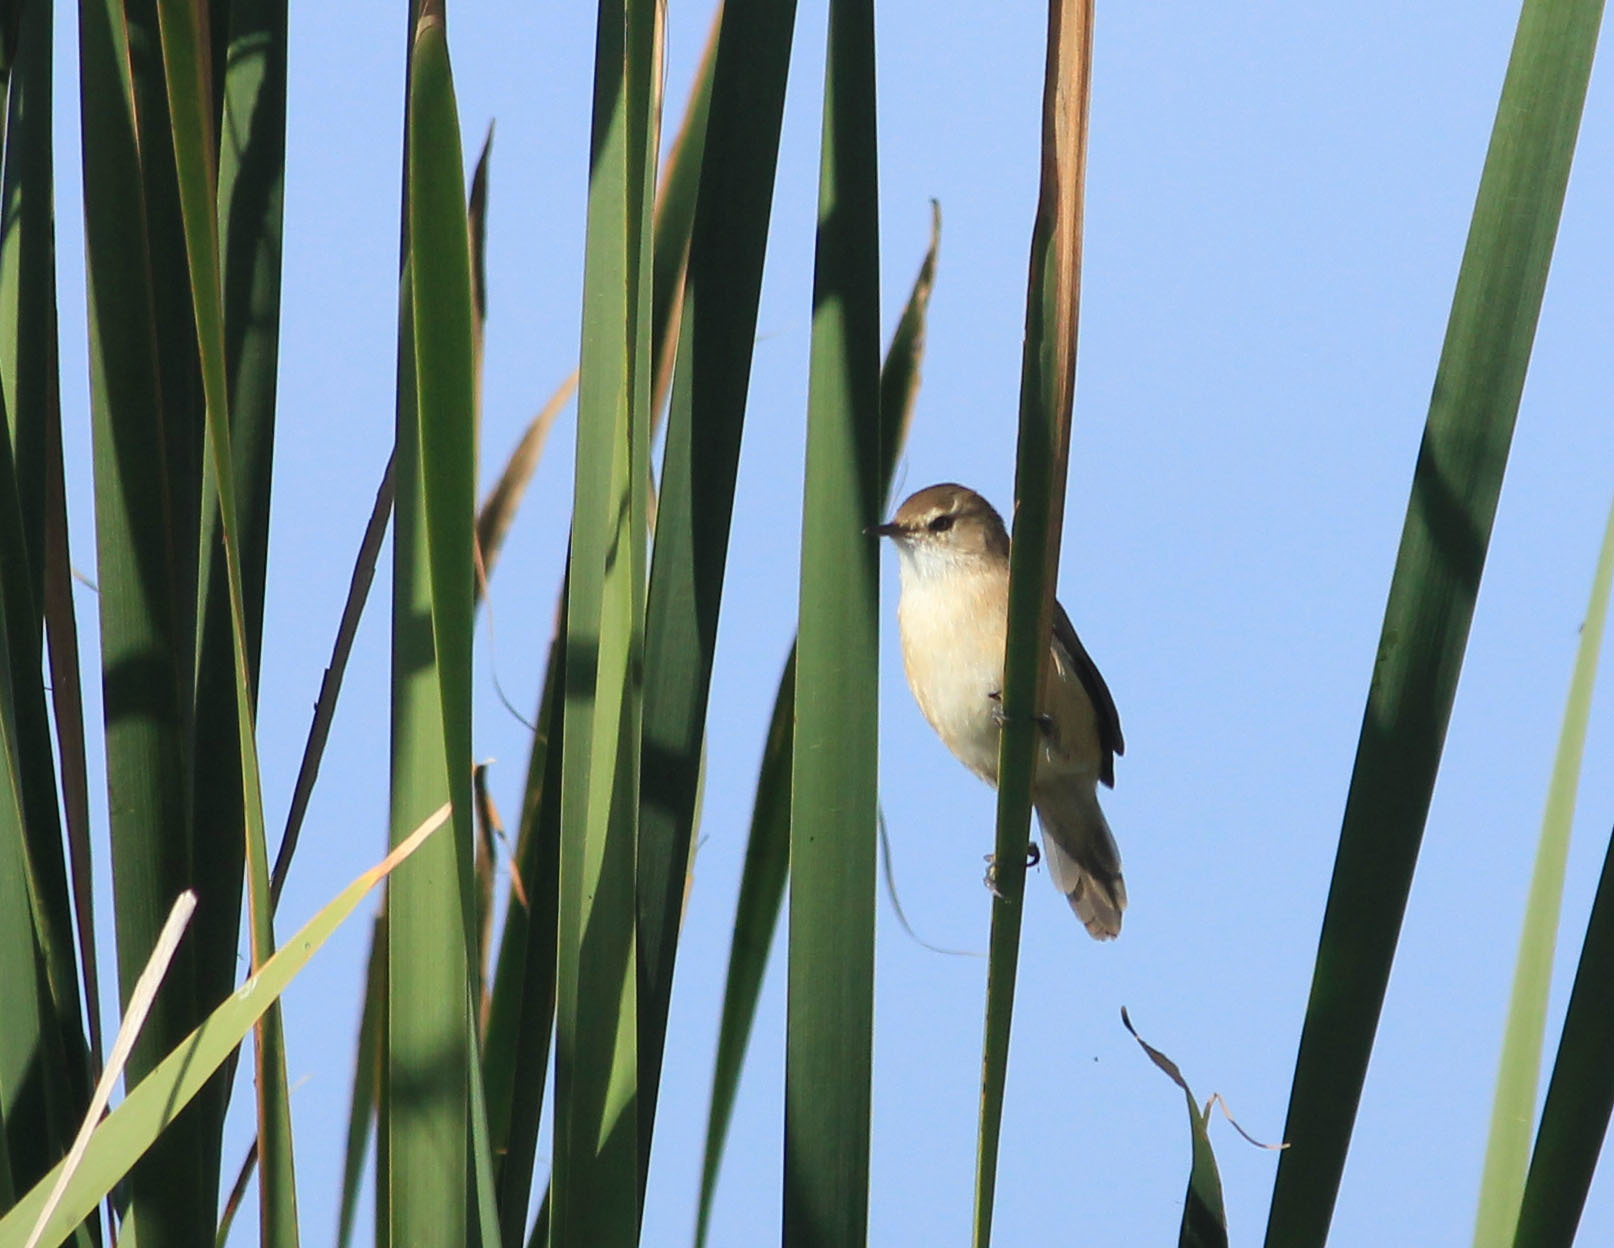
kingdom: Animalia
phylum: Chordata
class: Aves
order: Passeriformes
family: Acrocephalidae
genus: Acrocephalus
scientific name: Acrocephalus gracilirostris
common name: Lesser swamp warbler
